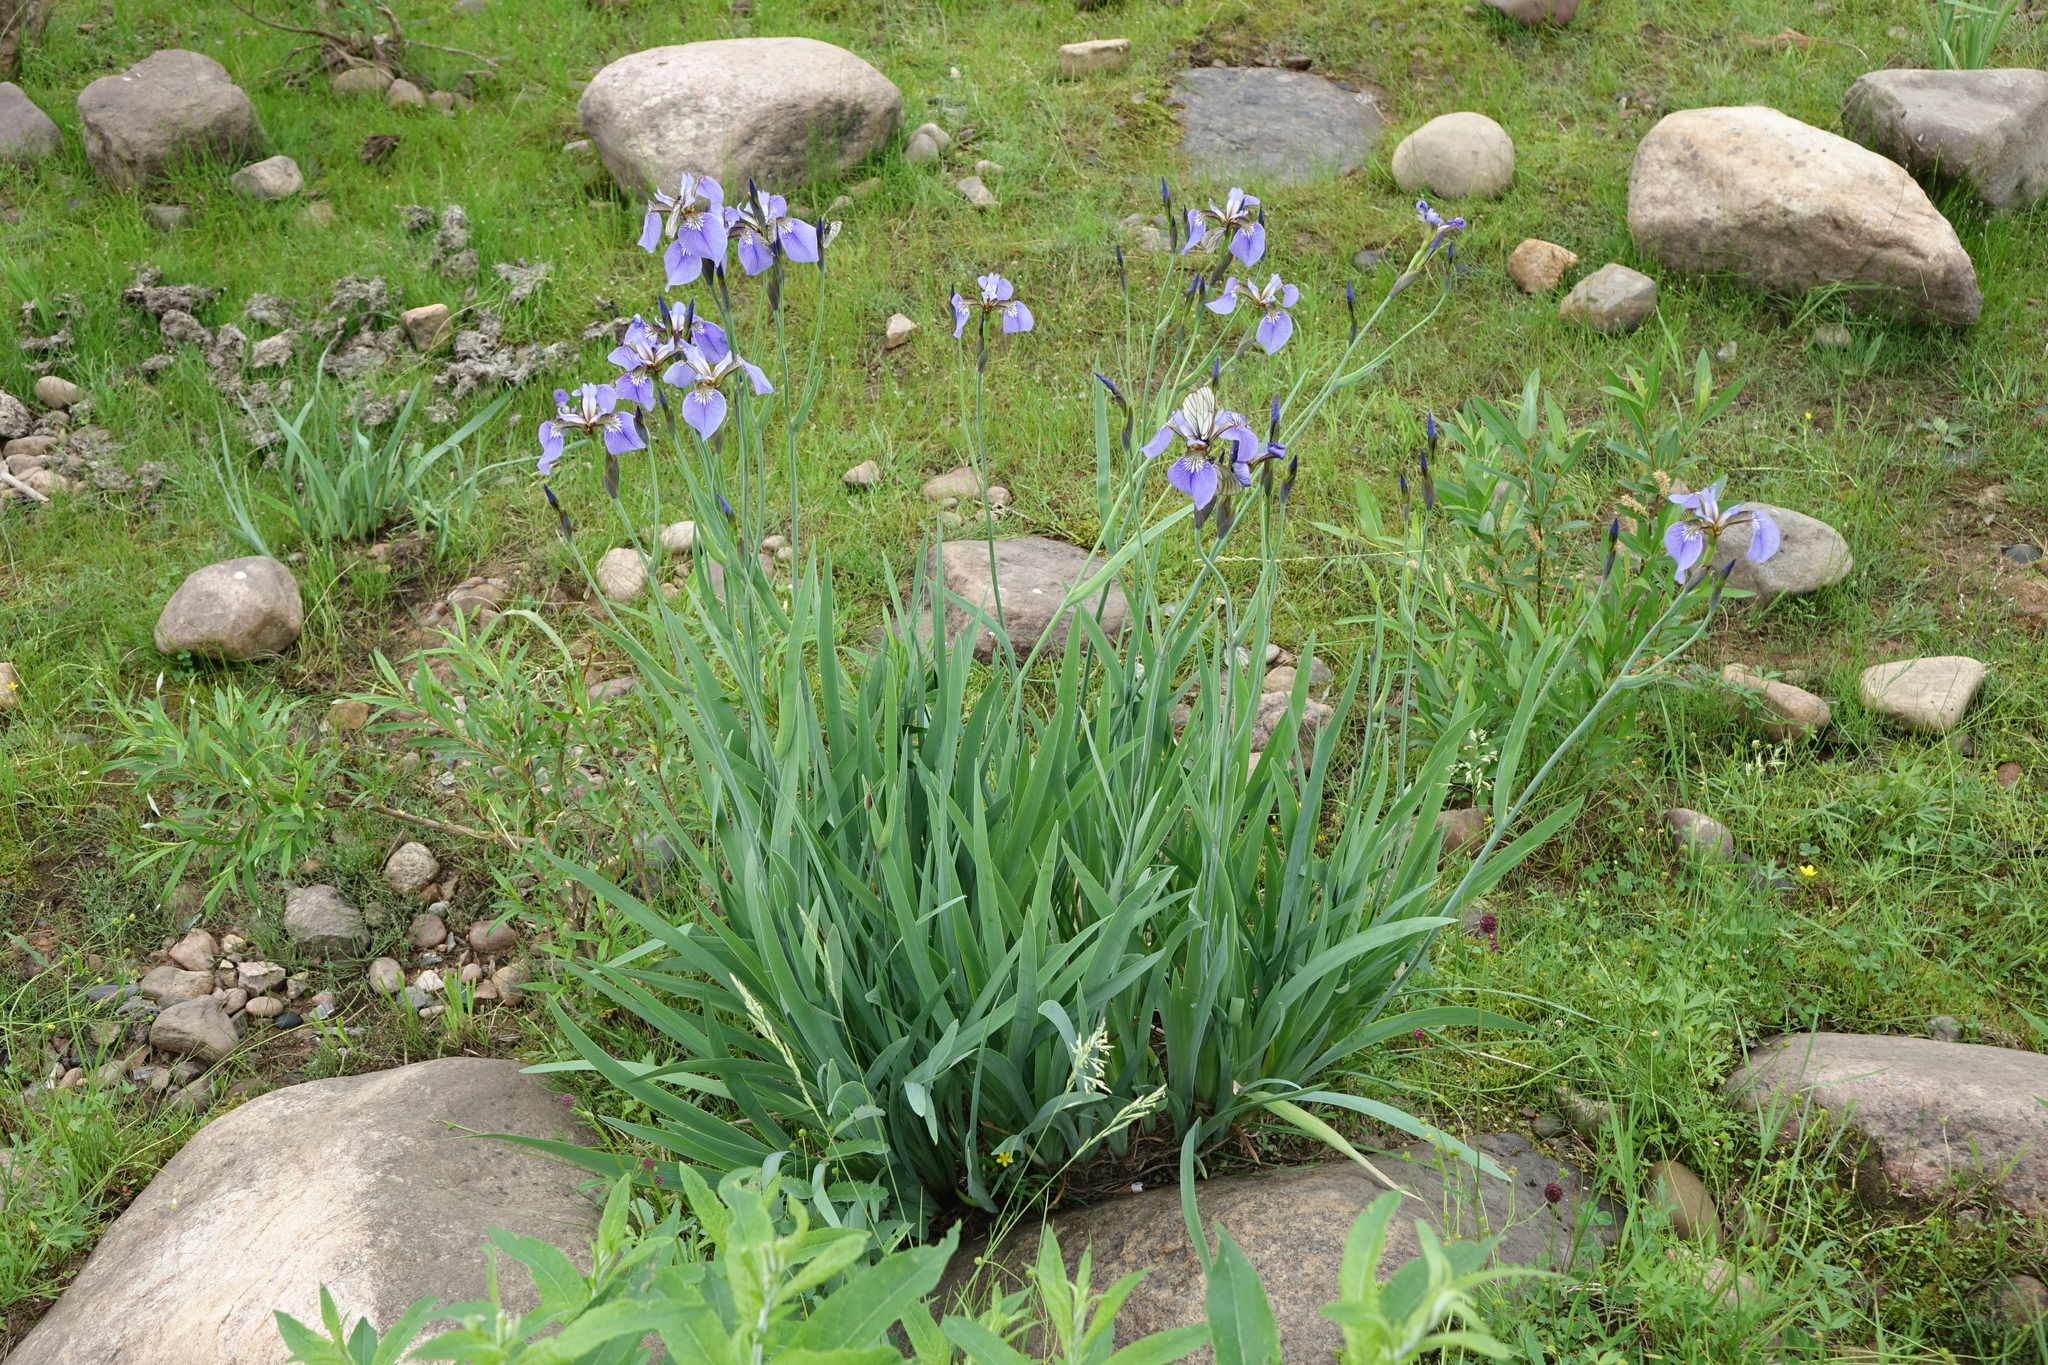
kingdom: Plantae
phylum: Tracheophyta
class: Liliopsida
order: Asparagales
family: Iridaceae
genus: Iris
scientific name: Iris setosa
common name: Arctic blue flag
